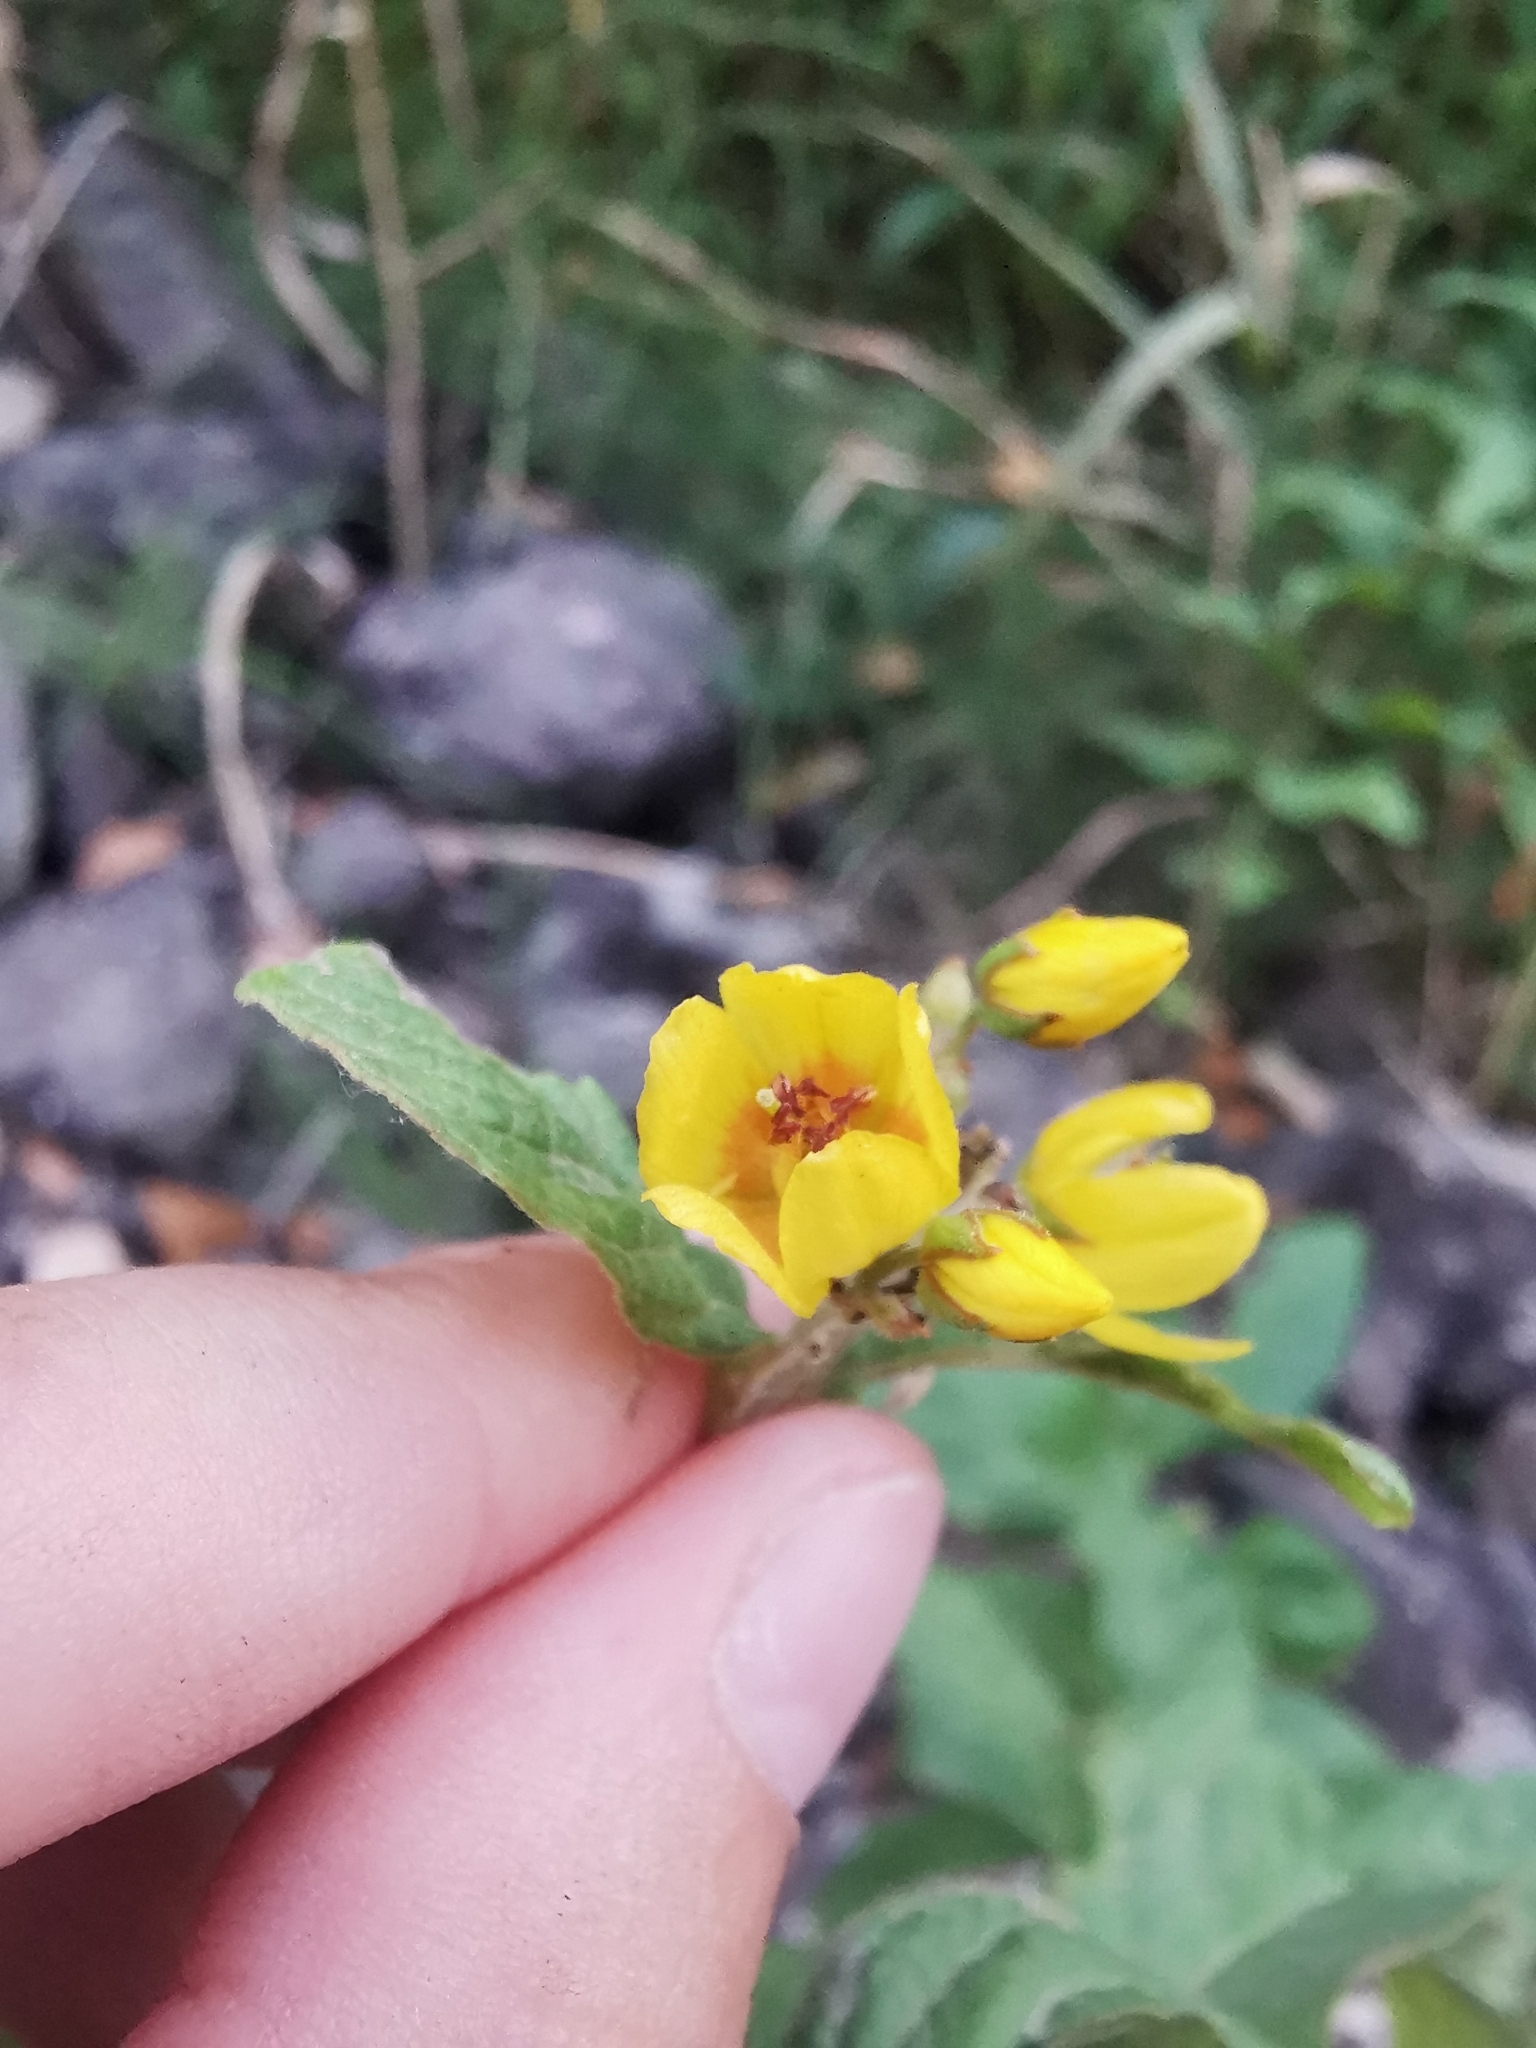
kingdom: Plantae
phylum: Tracheophyta
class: Magnoliopsida
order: Ericales
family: Primulaceae
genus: Lysimachia
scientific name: Lysimachia vulgaris
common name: Yellow loosestrife
